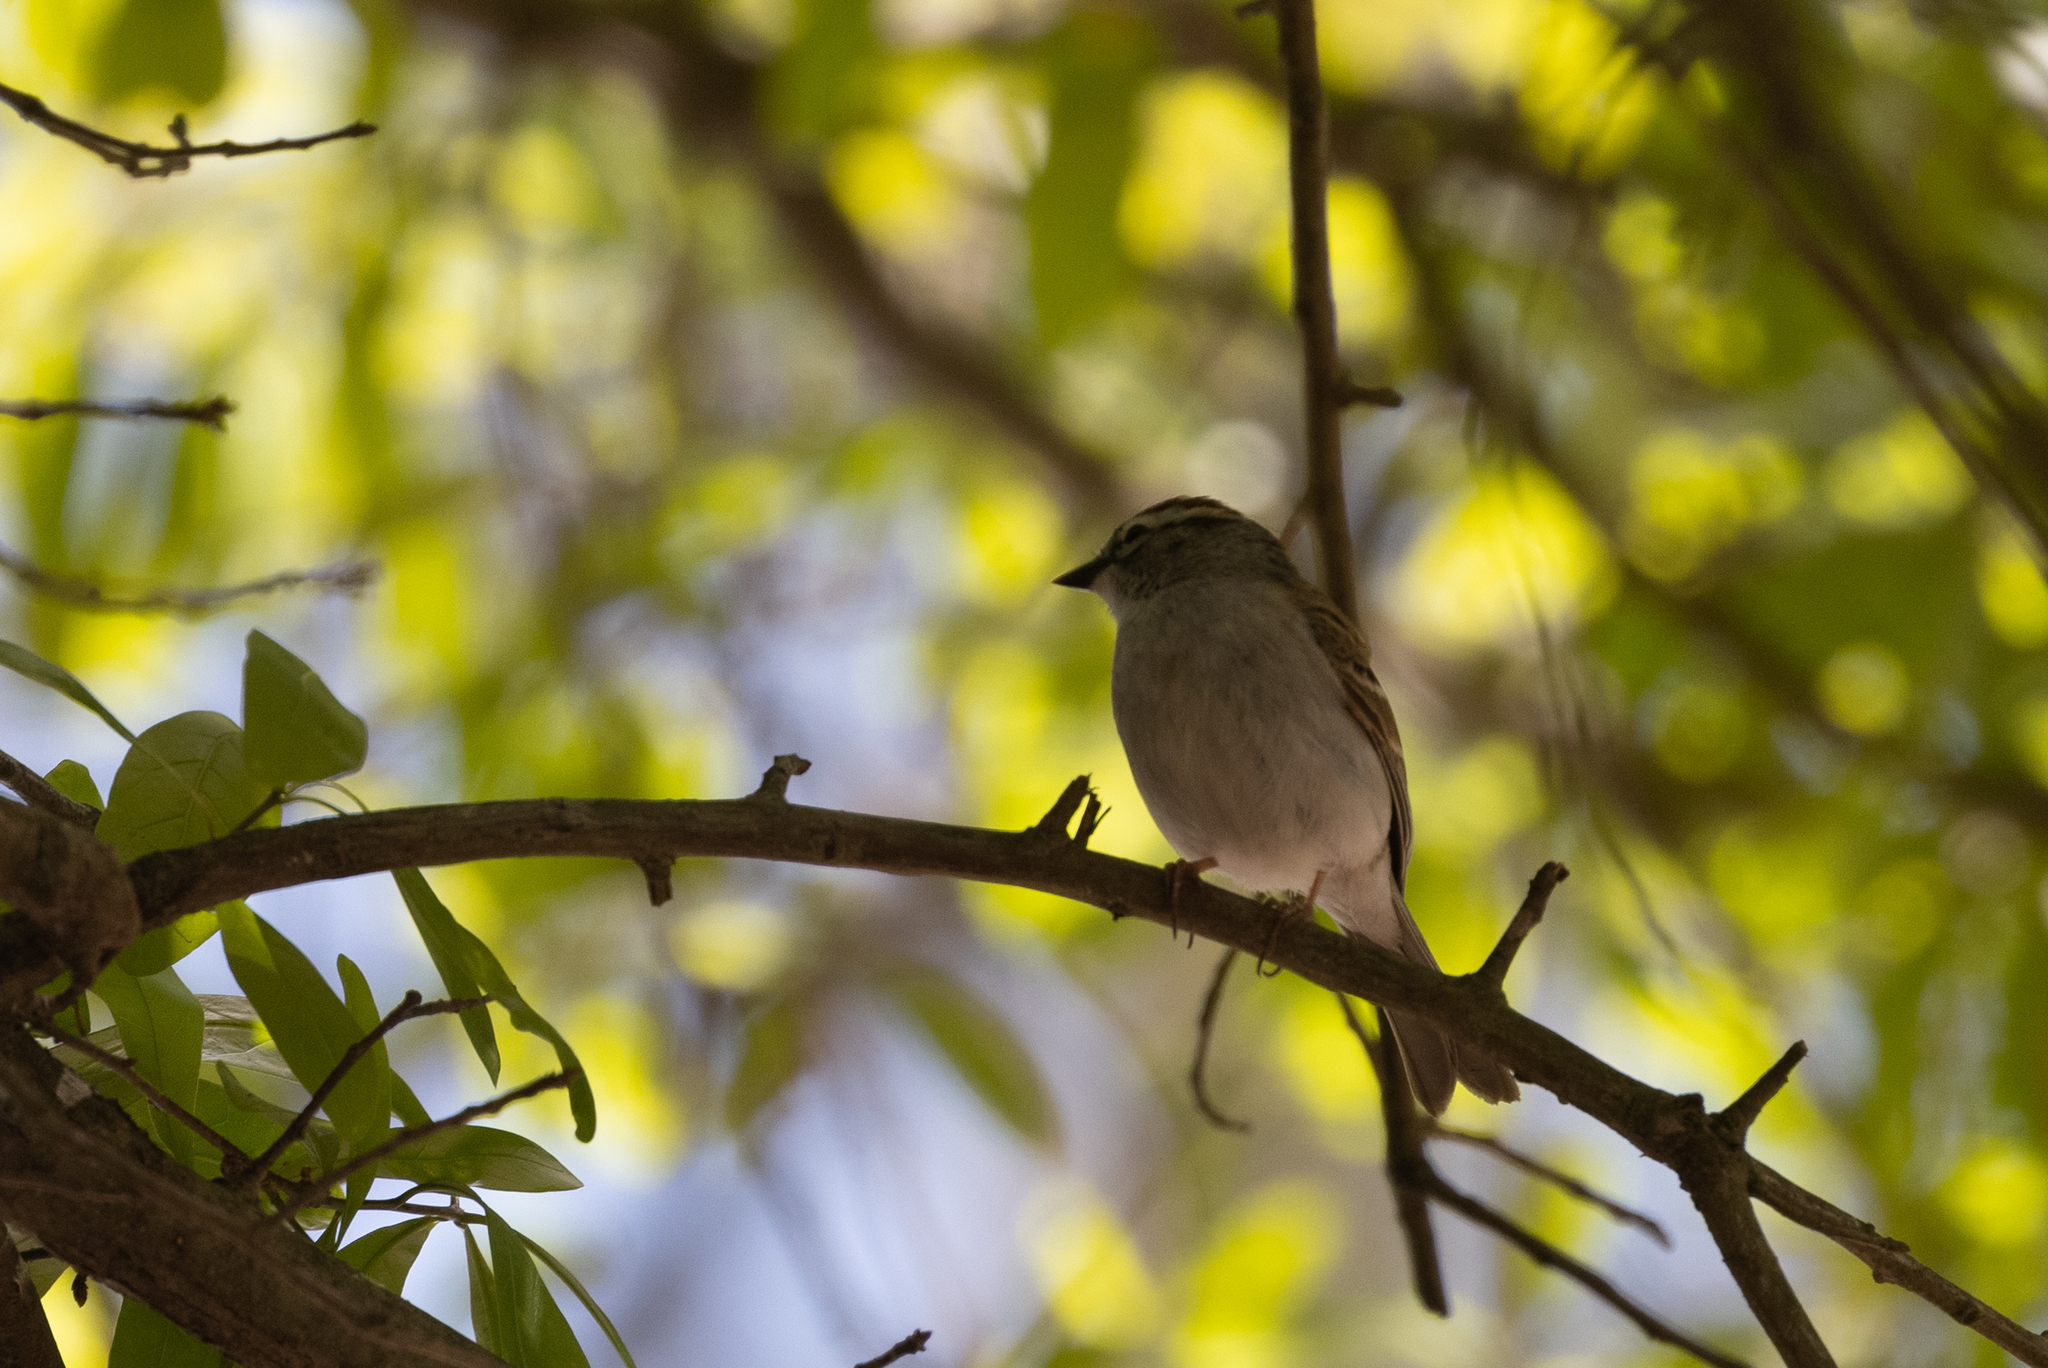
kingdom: Animalia
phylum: Chordata
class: Aves
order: Passeriformes
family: Passerellidae
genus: Spizella
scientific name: Spizella passerina
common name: Chipping sparrow
